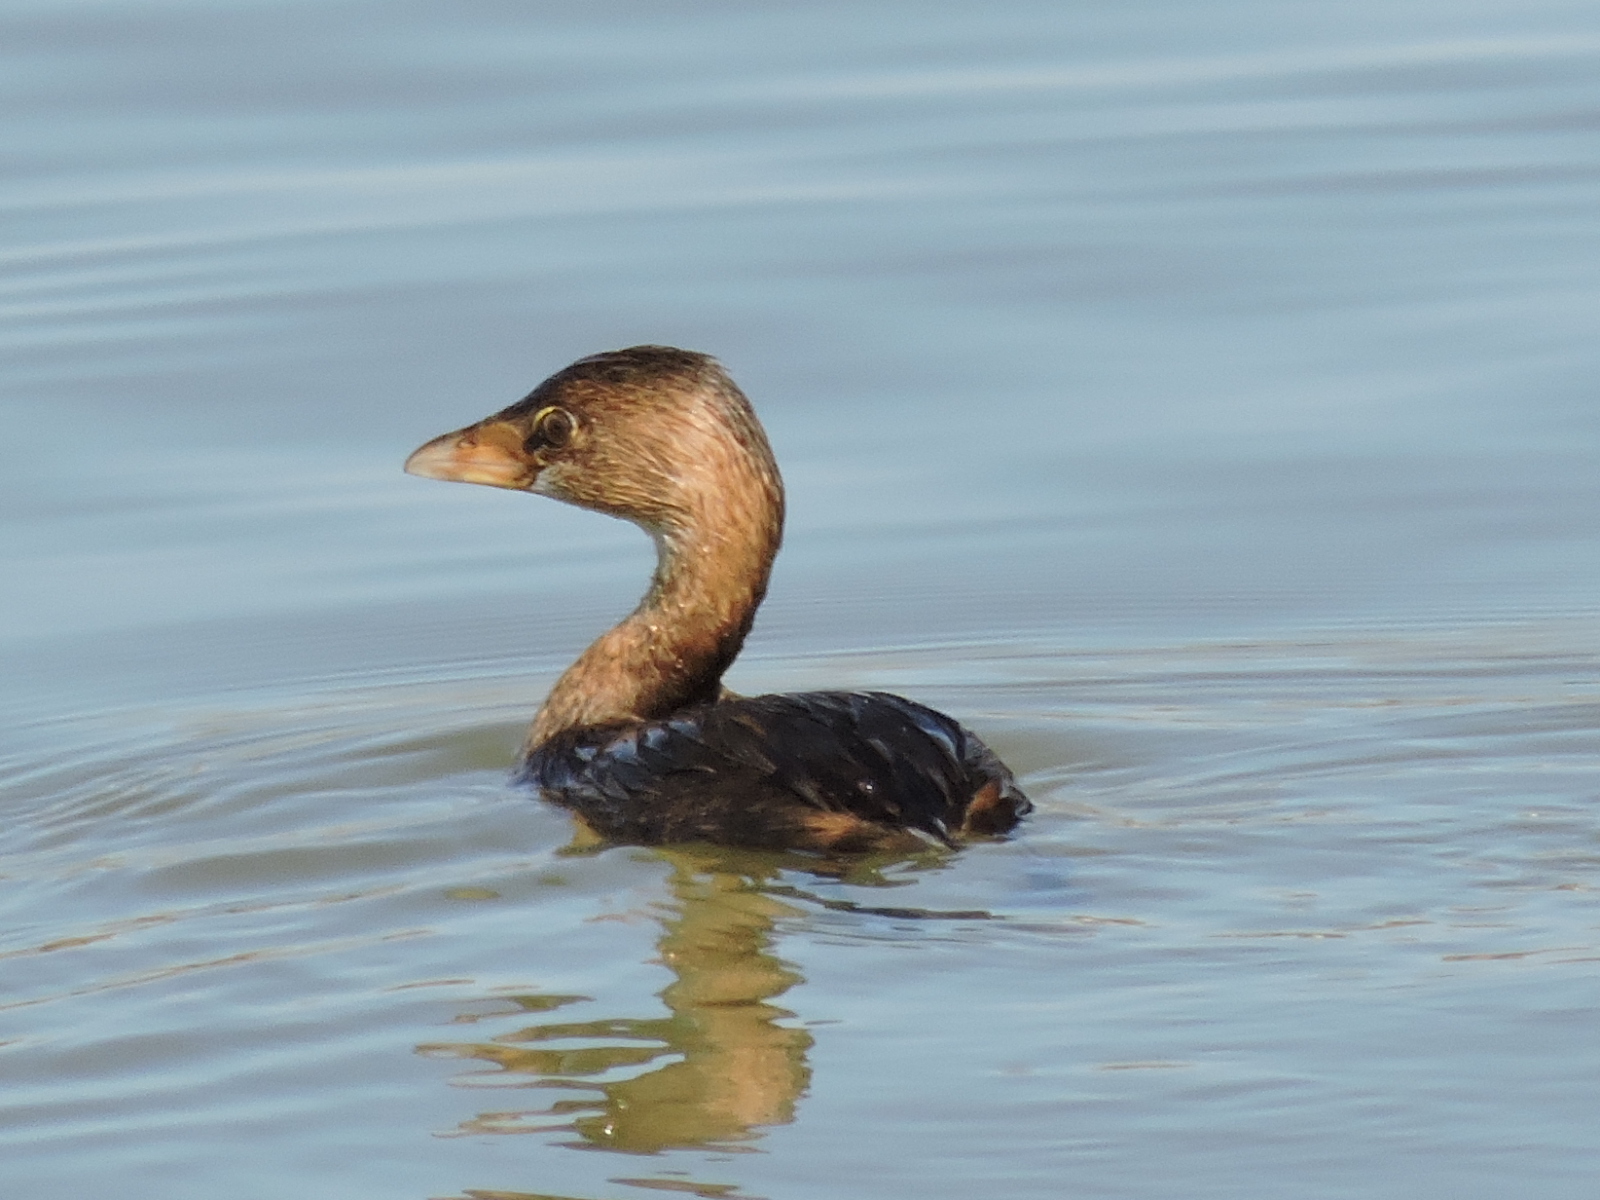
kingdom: Animalia
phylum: Chordata
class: Aves
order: Podicipediformes
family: Podicipedidae
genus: Podilymbus
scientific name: Podilymbus podiceps
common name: Pied-billed grebe
